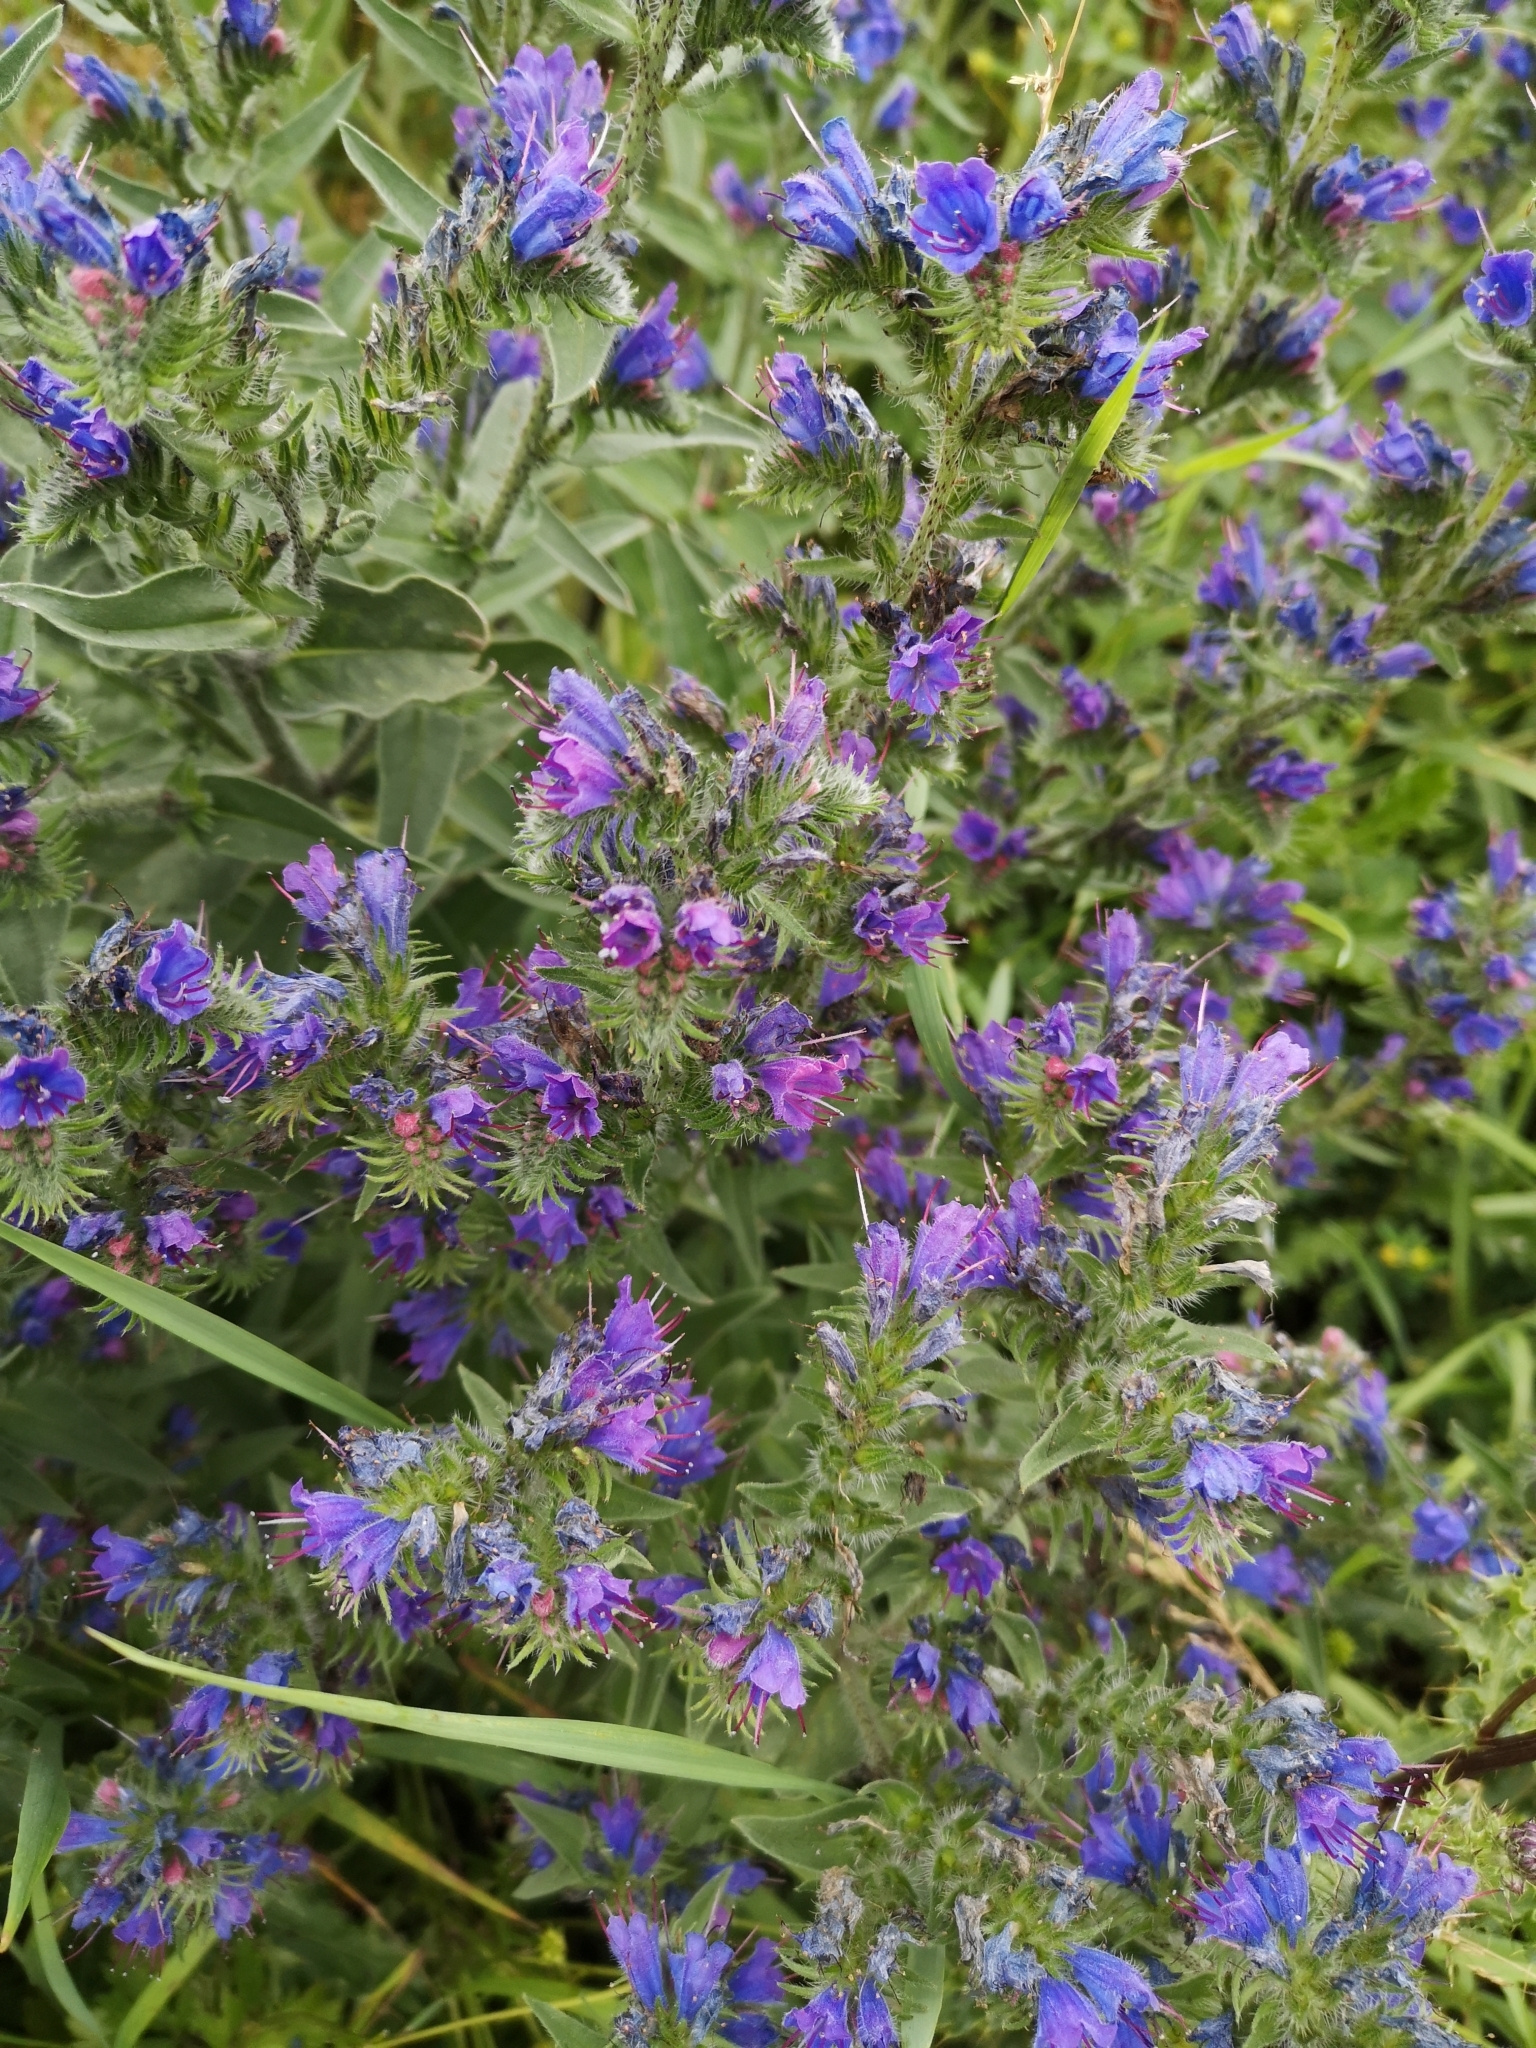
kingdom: Plantae
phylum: Tracheophyta
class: Magnoliopsida
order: Boraginales
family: Boraginaceae
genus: Echium
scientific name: Echium vulgare
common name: Common viper's bugloss
